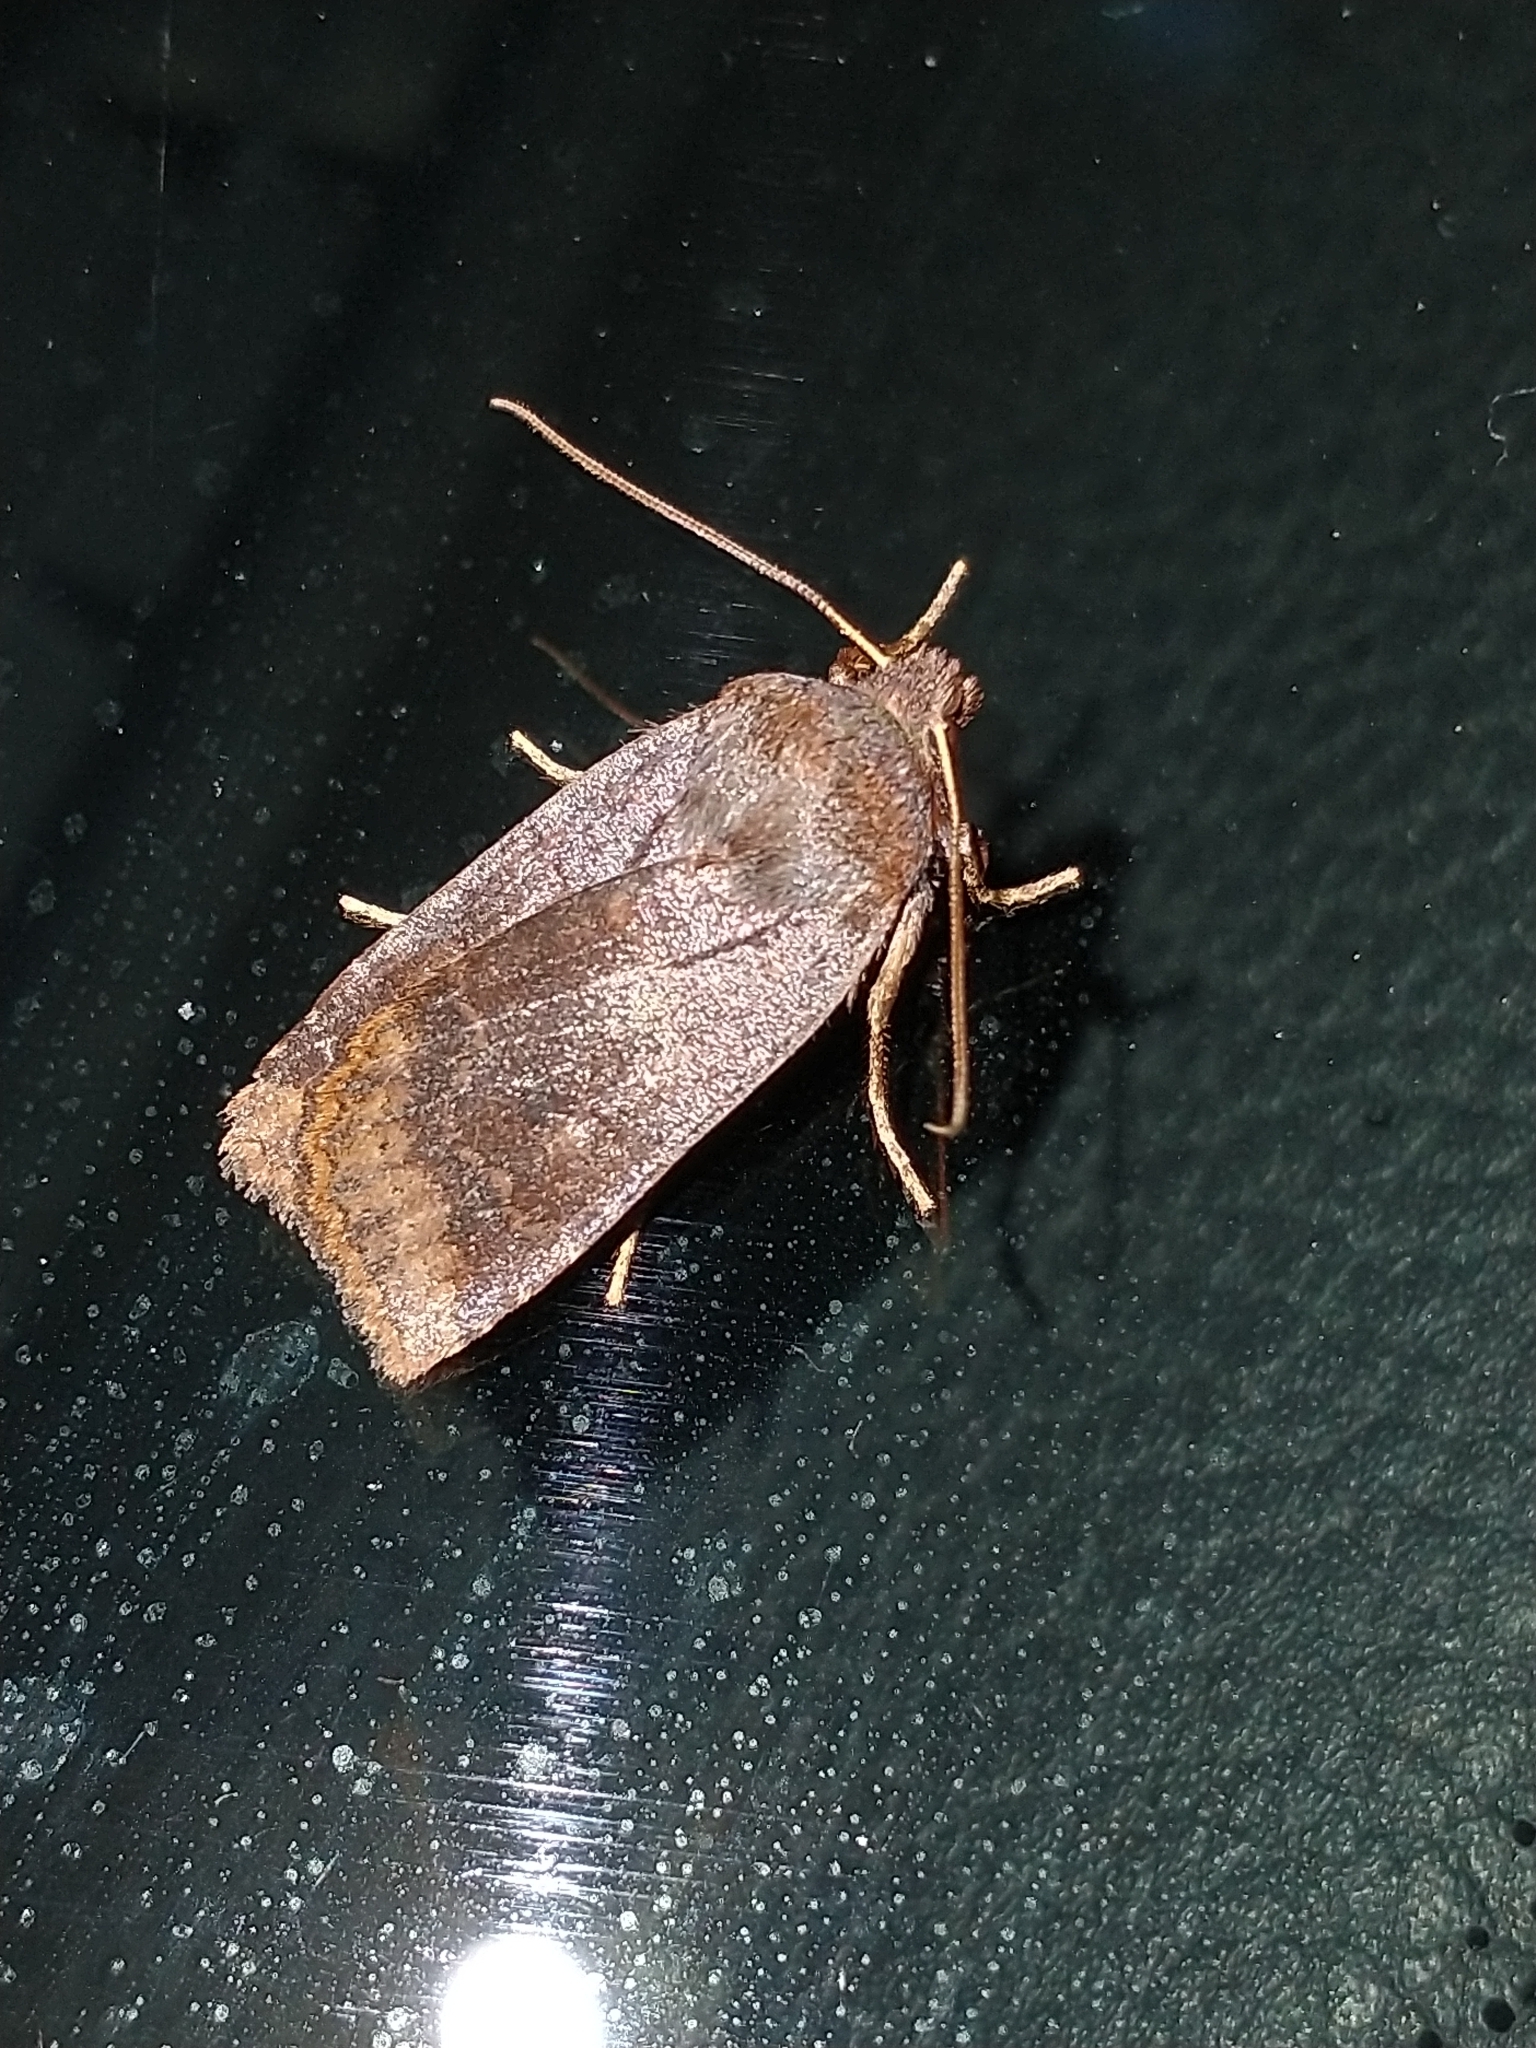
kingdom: Animalia
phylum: Arthropoda
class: Insecta
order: Lepidoptera
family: Noctuidae
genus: Conistra
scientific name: Conistra ligula
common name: Dark chestnut
